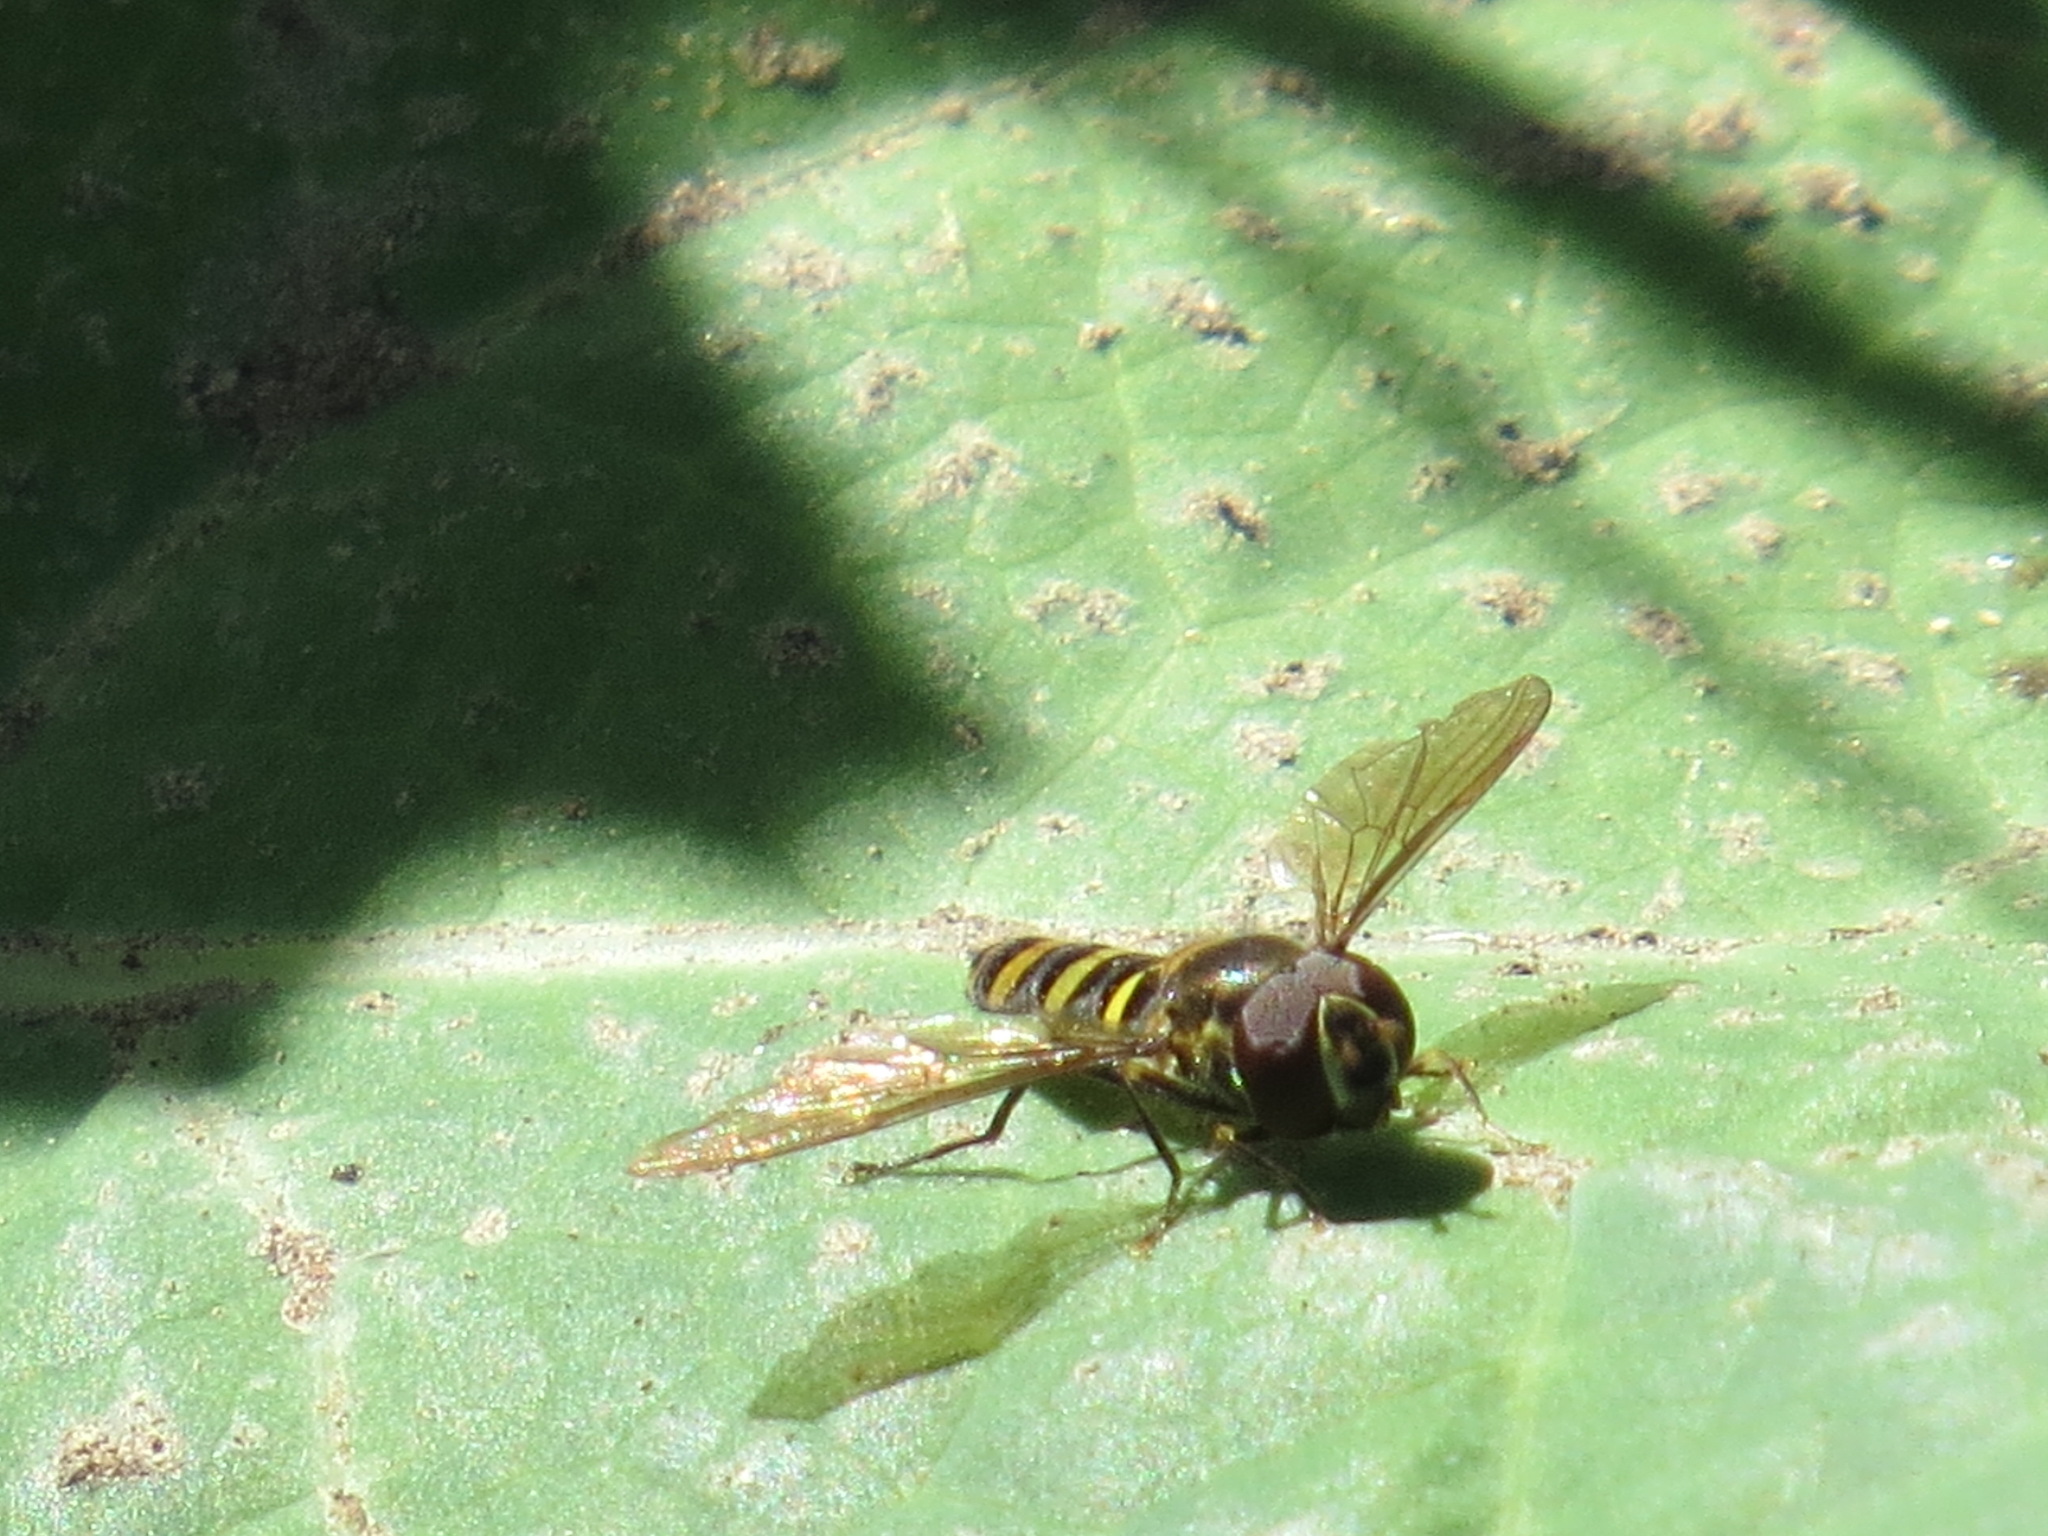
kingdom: Animalia
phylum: Arthropoda
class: Insecta
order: Diptera
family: Syrphidae
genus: Fazia
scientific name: Fazia micrura
